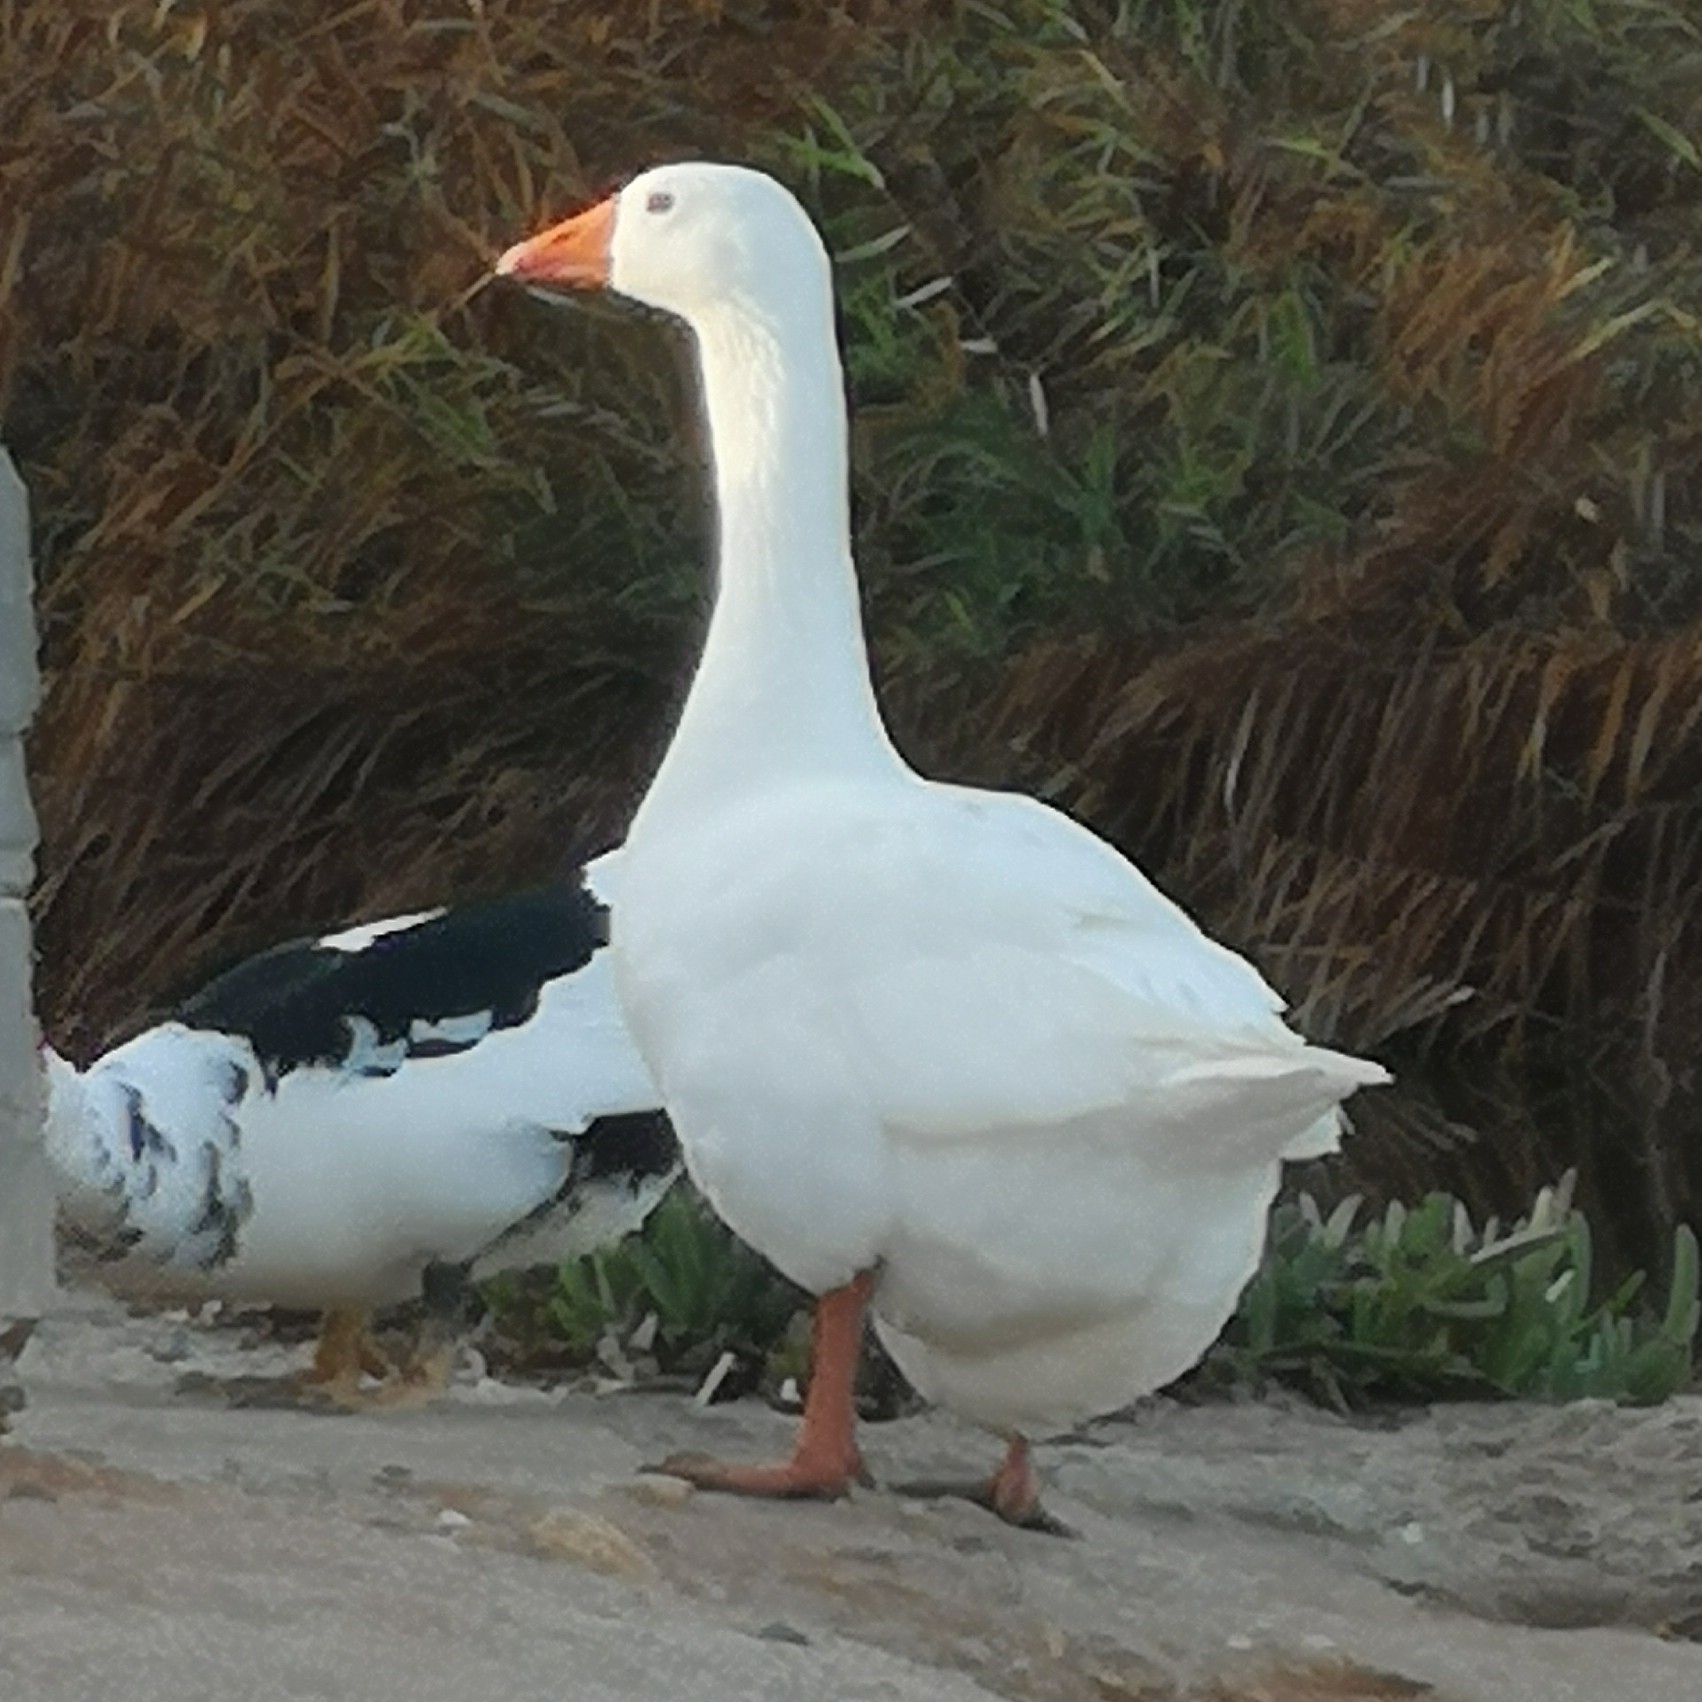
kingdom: Animalia
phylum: Chordata
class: Aves
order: Anseriformes
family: Anatidae
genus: Anser
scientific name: Anser anser
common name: Greylag goose
